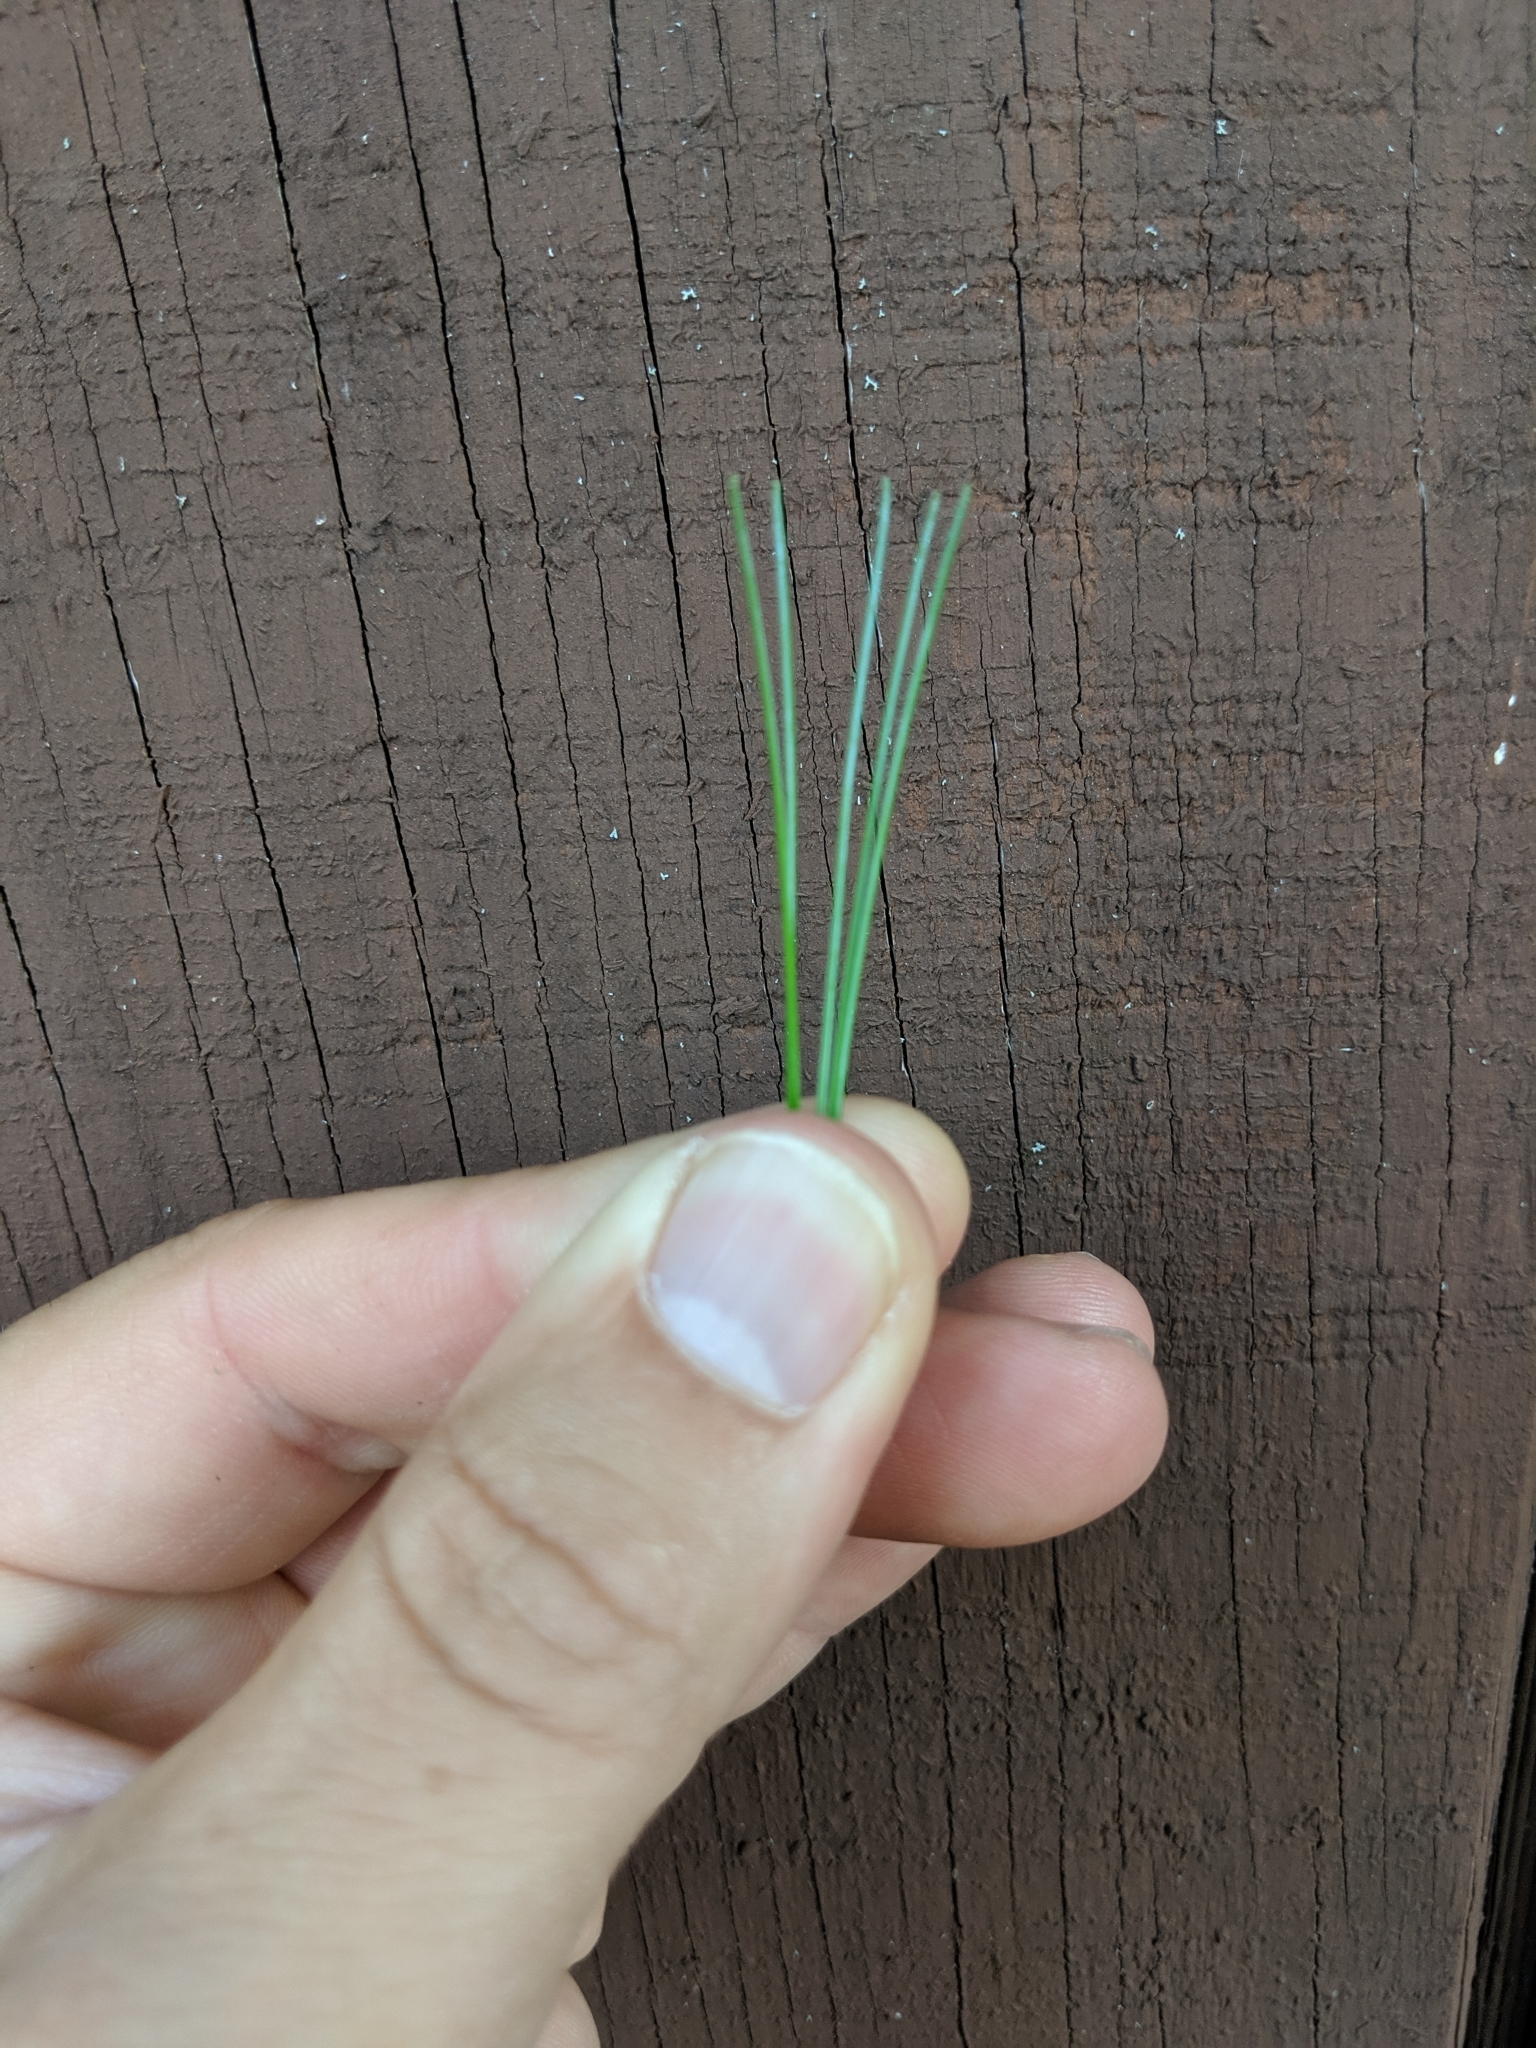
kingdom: Plantae
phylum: Tracheophyta
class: Pinopsida
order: Pinales
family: Pinaceae
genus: Pinus
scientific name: Pinus strobus
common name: Weymouth pine
